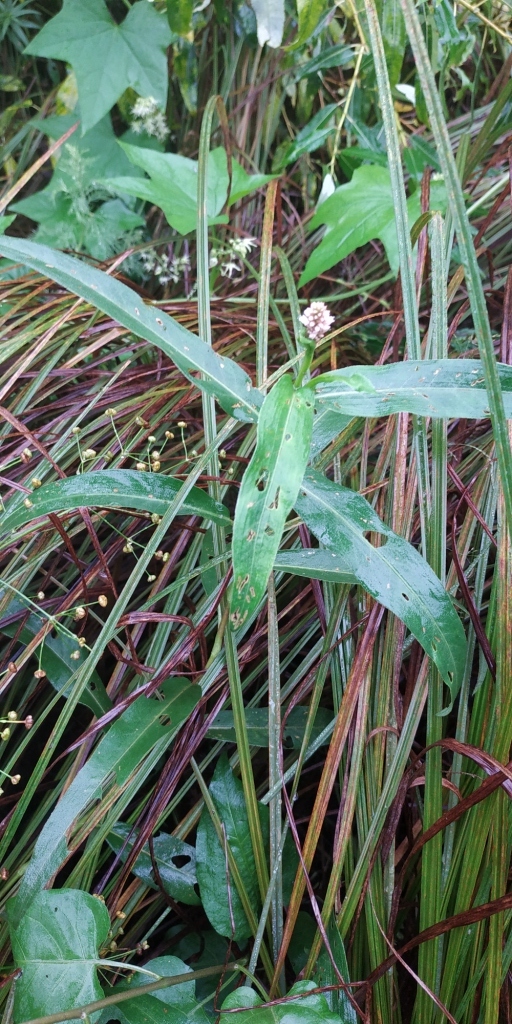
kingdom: Plantae
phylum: Tracheophyta
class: Magnoliopsida
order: Caryophyllales
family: Polygonaceae
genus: Persicaria
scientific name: Persicaria amphibia
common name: Amphibious bistort
